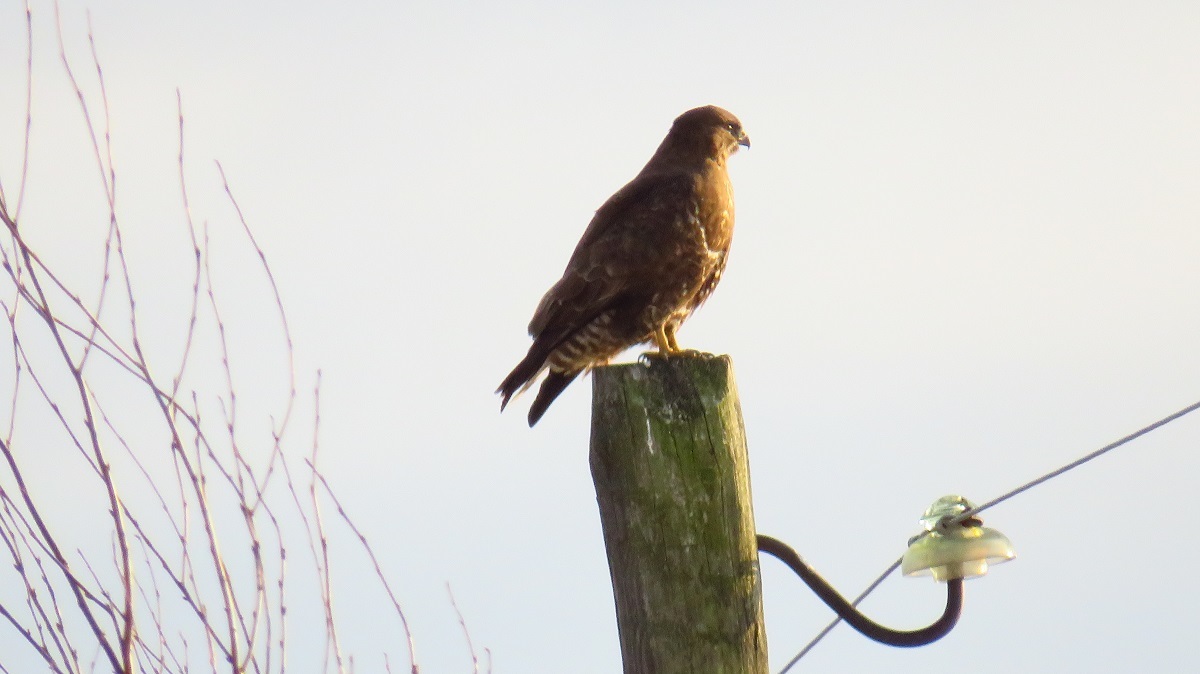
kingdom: Animalia
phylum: Chordata
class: Aves
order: Accipitriformes
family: Accipitridae
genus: Buteo
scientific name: Buteo buteo
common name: Common buzzard
